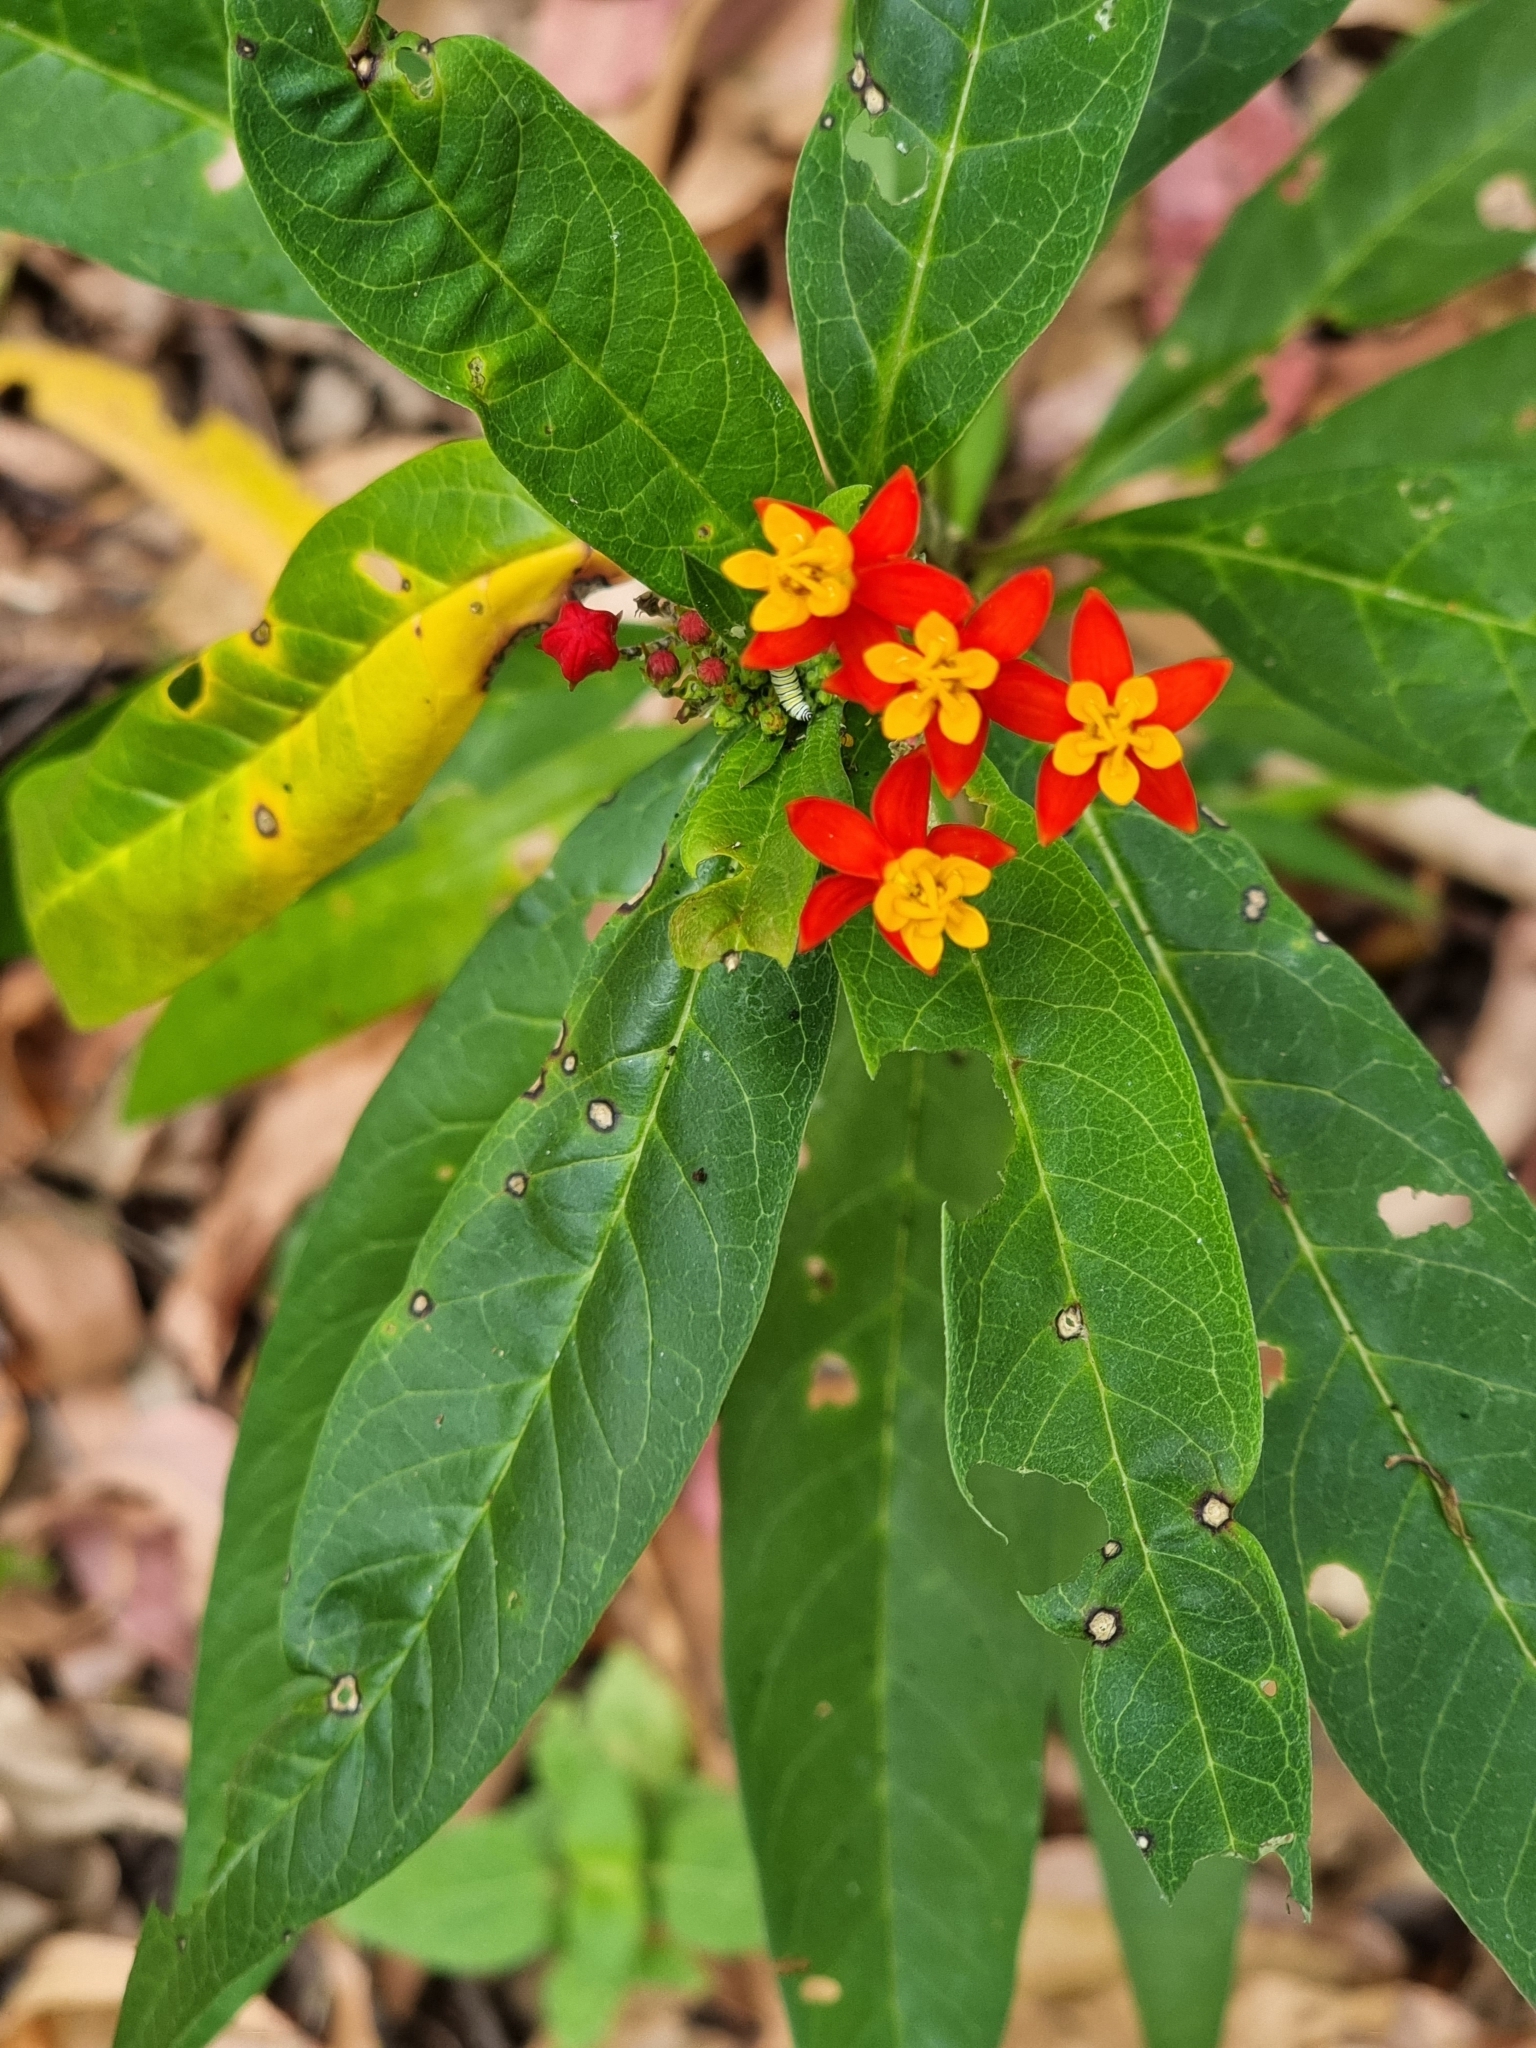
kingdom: Plantae
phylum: Tracheophyta
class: Magnoliopsida
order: Gentianales
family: Apocynaceae
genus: Asclepias
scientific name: Asclepias curassavica
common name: Bloodflower
